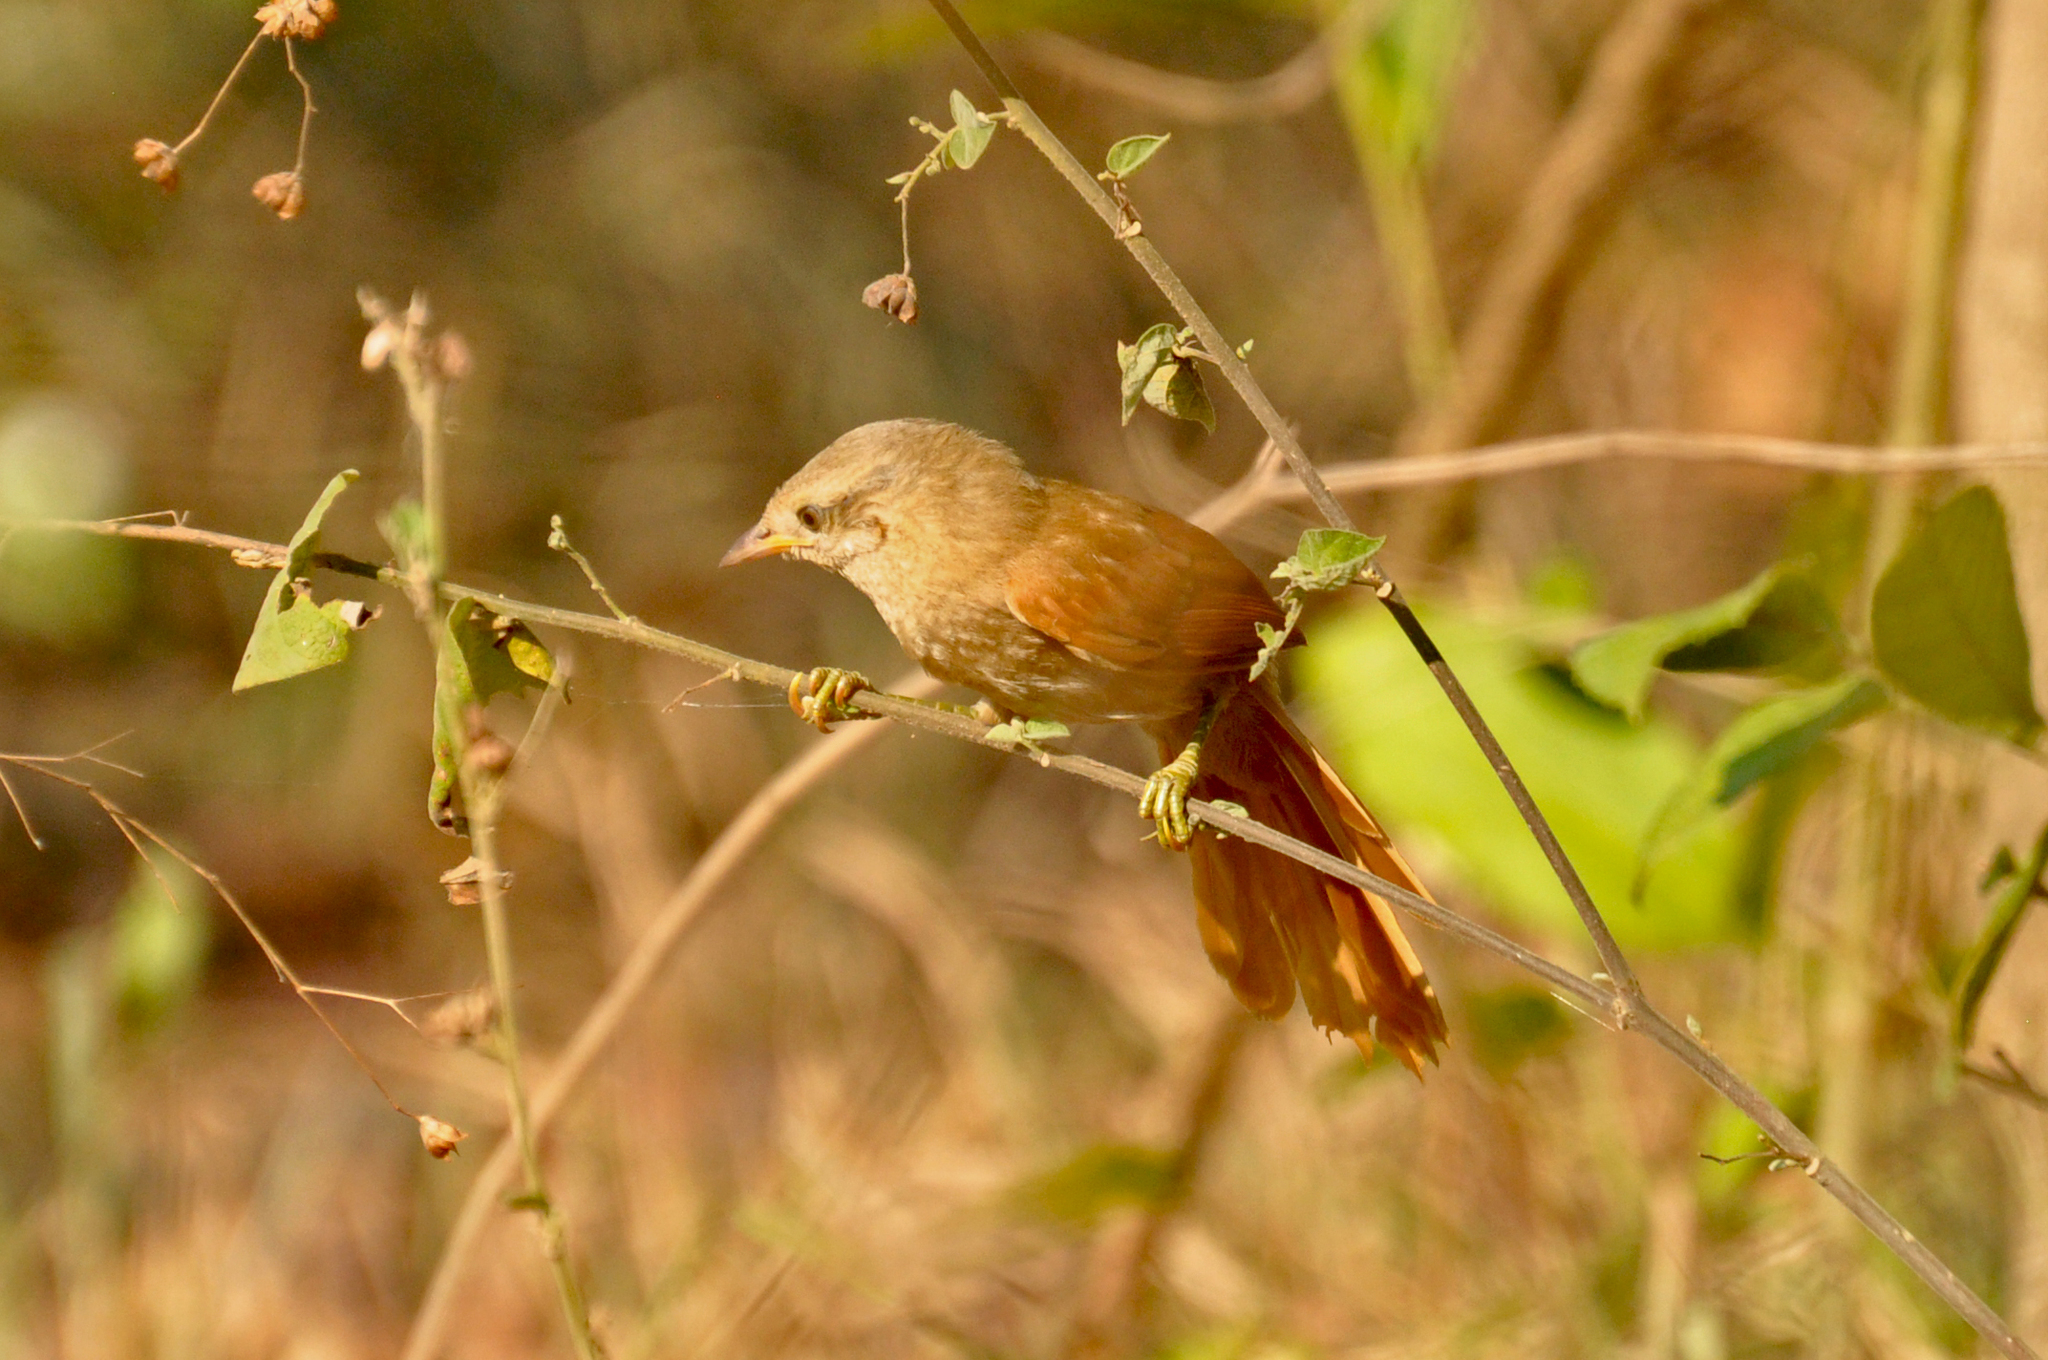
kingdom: Animalia
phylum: Chordata
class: Aves
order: Passeriformes
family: Furnariidae
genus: Thripophaga
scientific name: Thripophaga fusciceps
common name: Plain softtail
